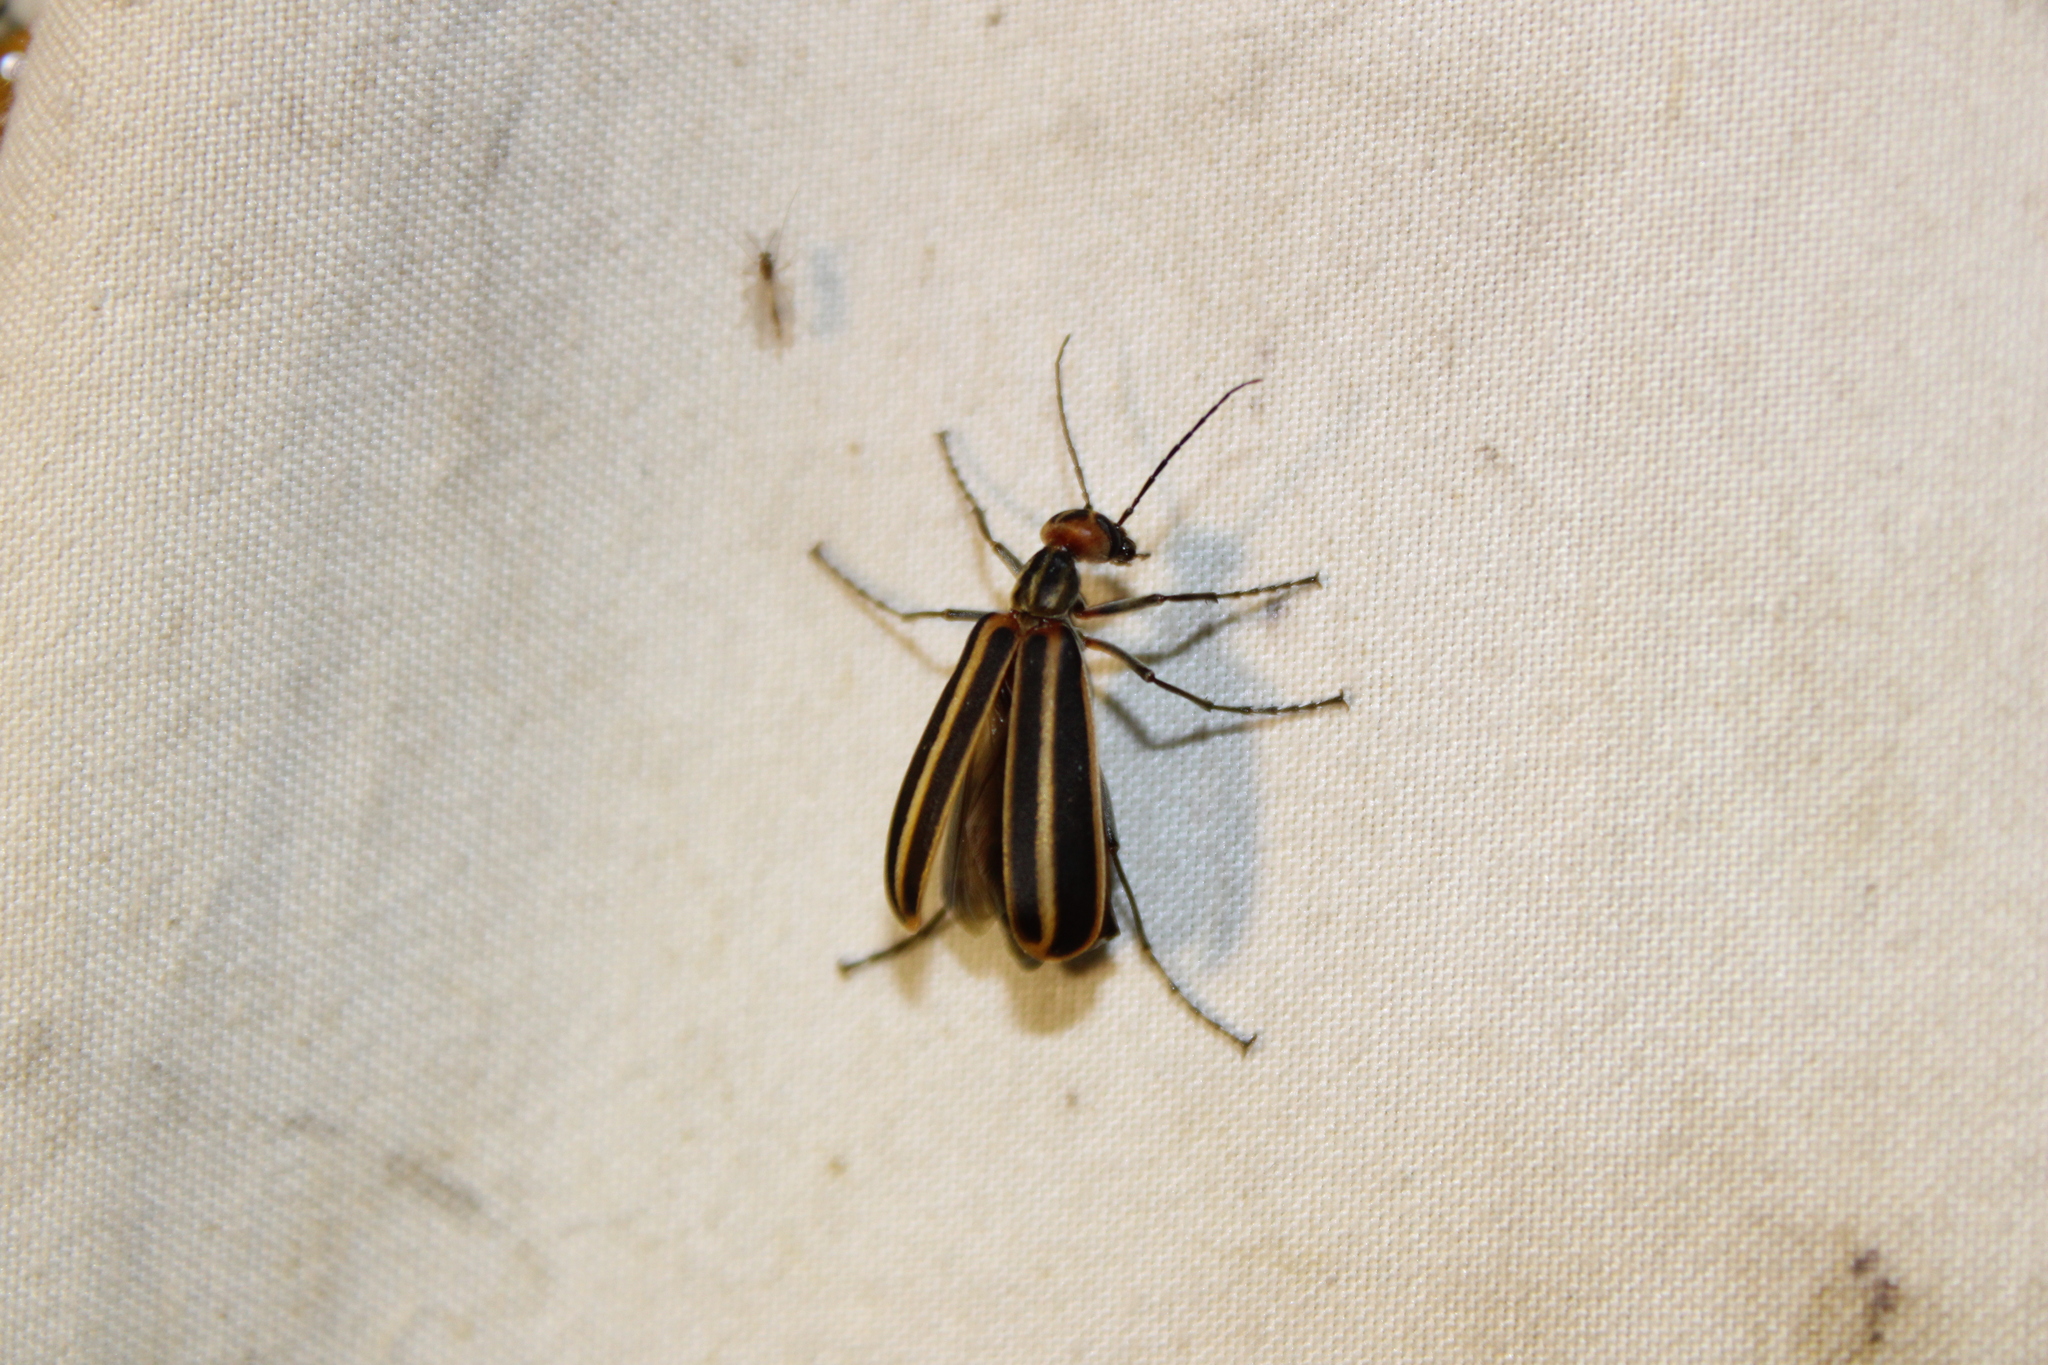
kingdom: Animalia
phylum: Arthropoda
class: Insecta
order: Coleoptera
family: Meloidae
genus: Epicauta
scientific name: Epicauta vittata
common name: Old-fashioned potato beetle
